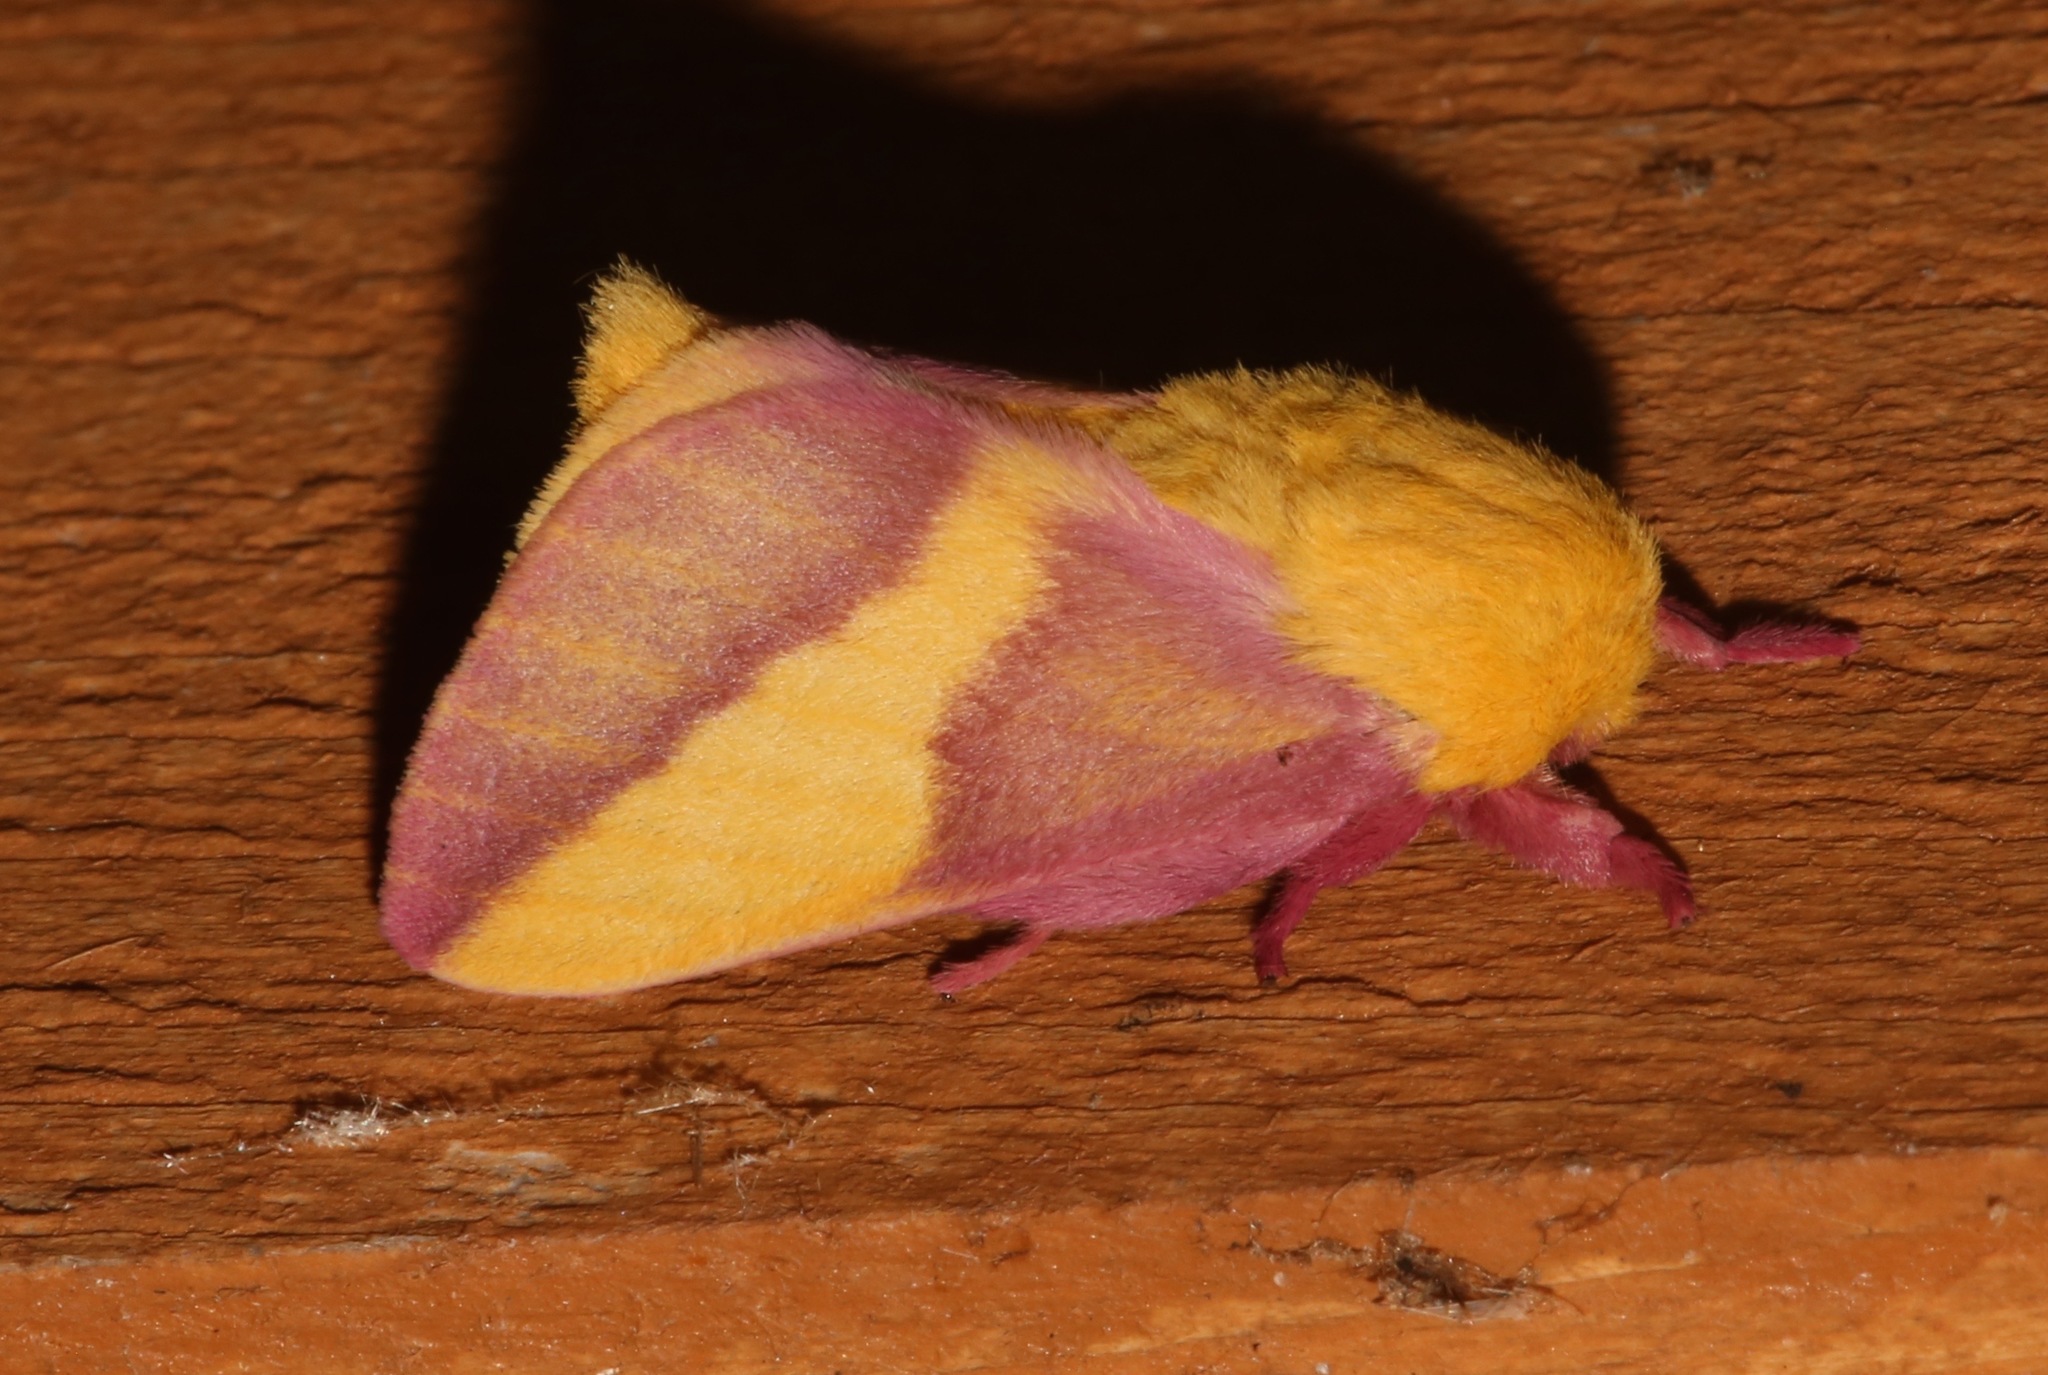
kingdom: Animalia
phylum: Arthropoda
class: Insecta
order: Lepidoptera
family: Saturniidae
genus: Dryocampa
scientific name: Dryocampa rubicunda
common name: Rosy maple moth
